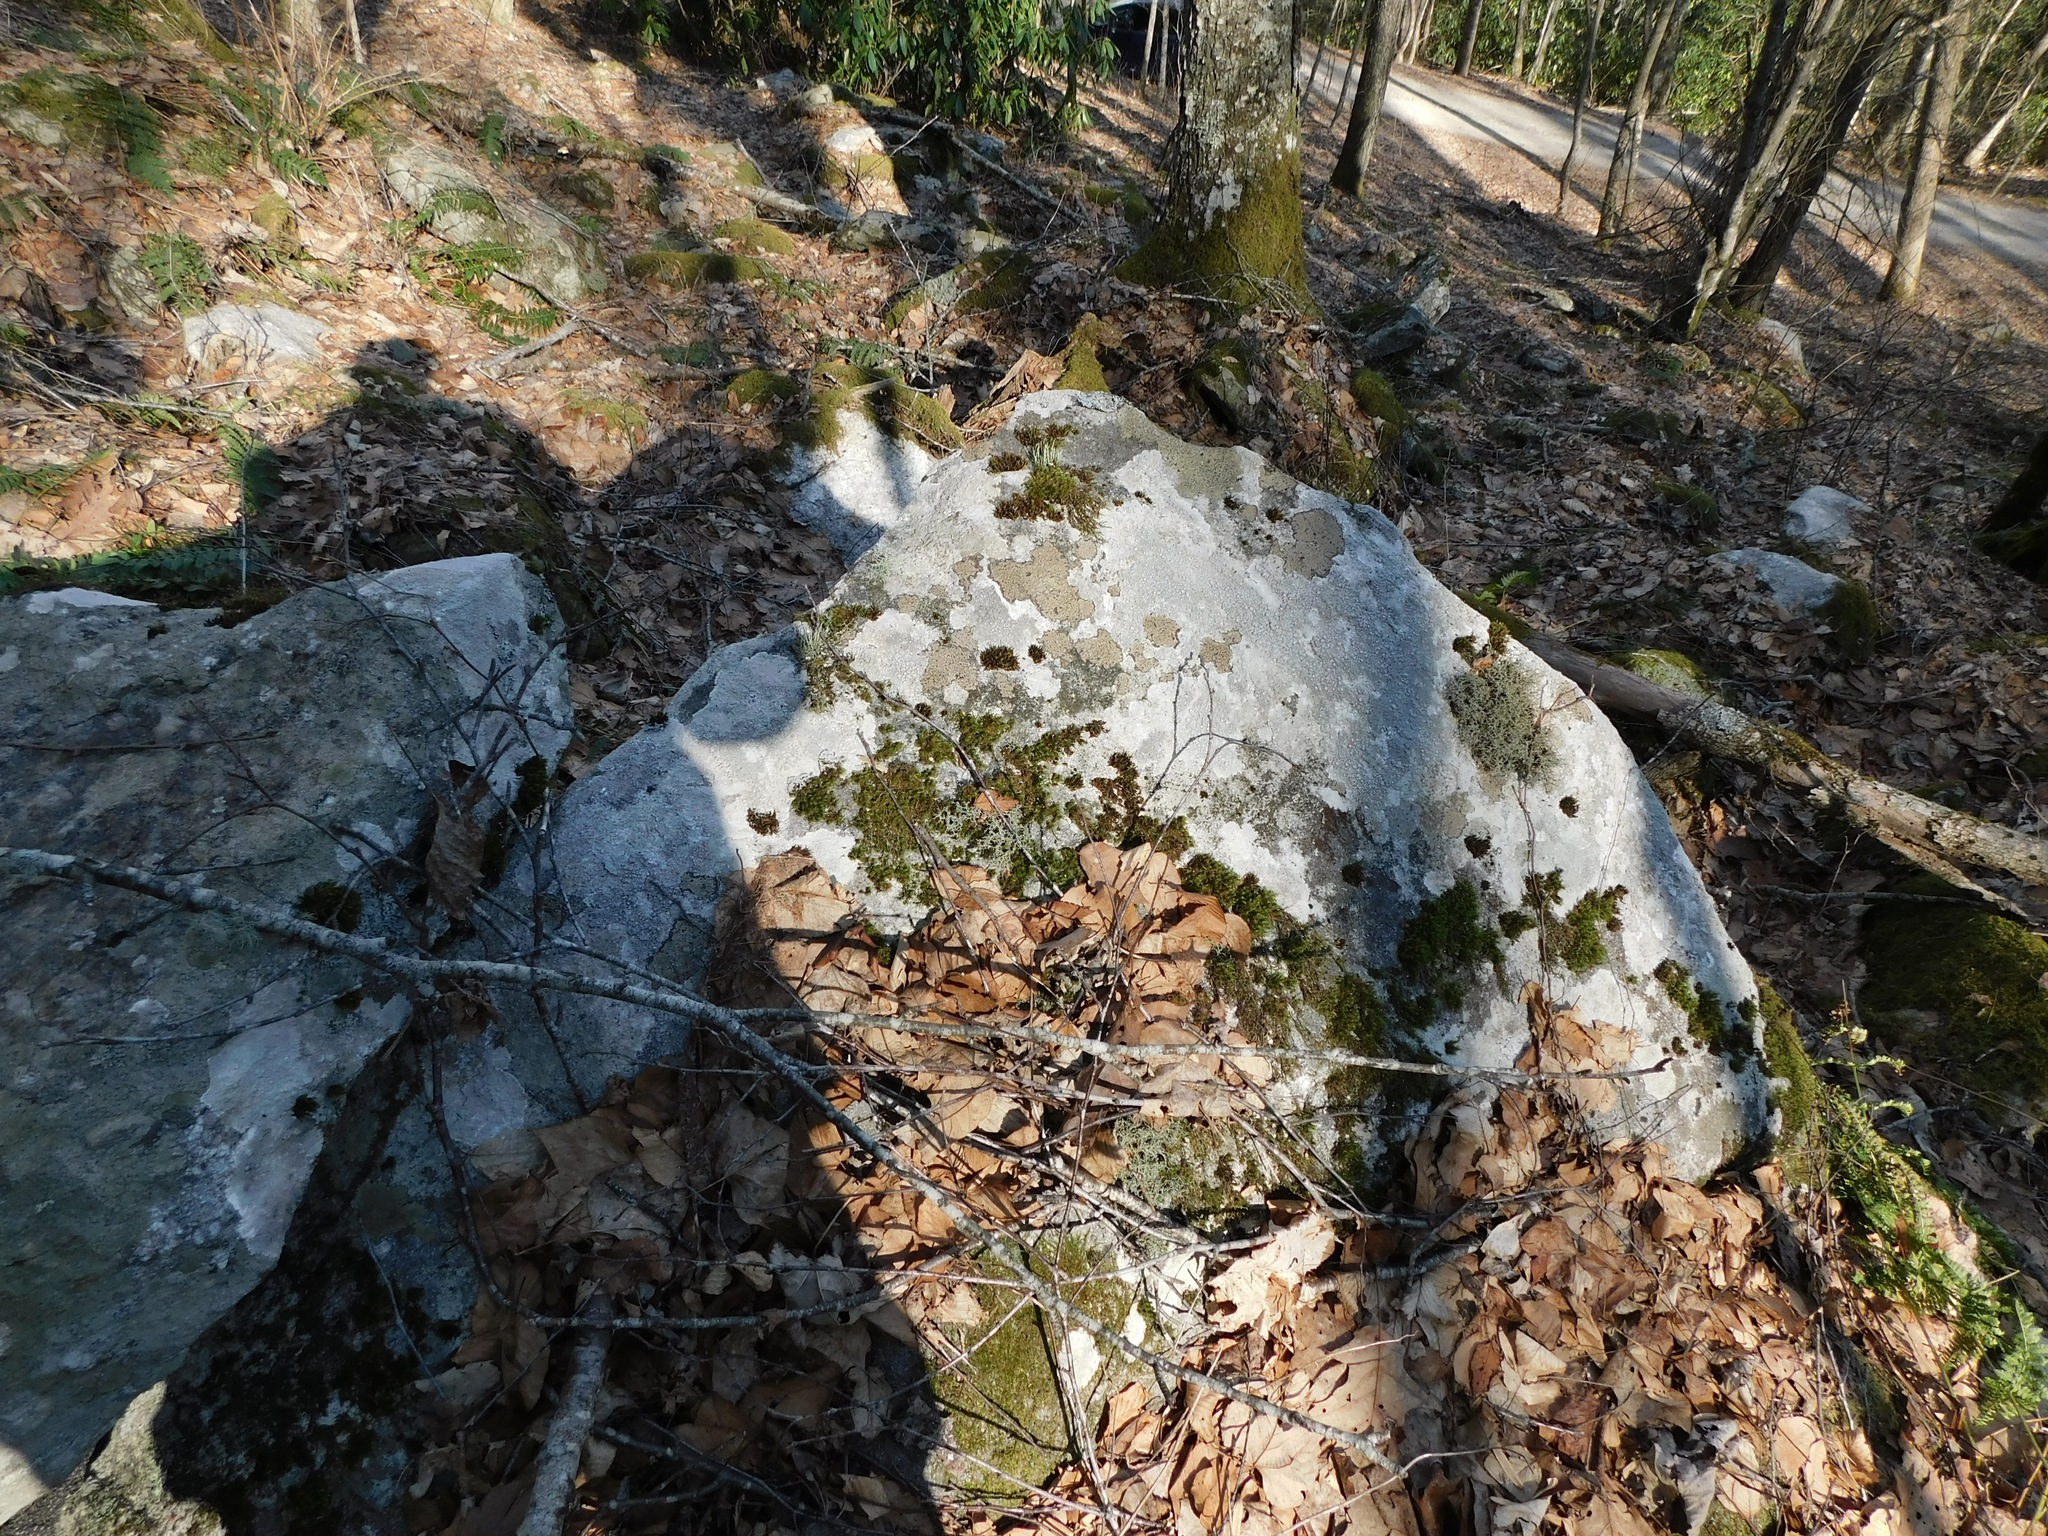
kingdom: Fungi
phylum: Ascomycota
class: Lecanoromycetes
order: Lecanorales
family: Cladoniaceae
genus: Cladonia
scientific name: Cladonia coniocraea
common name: Common powderhorn
